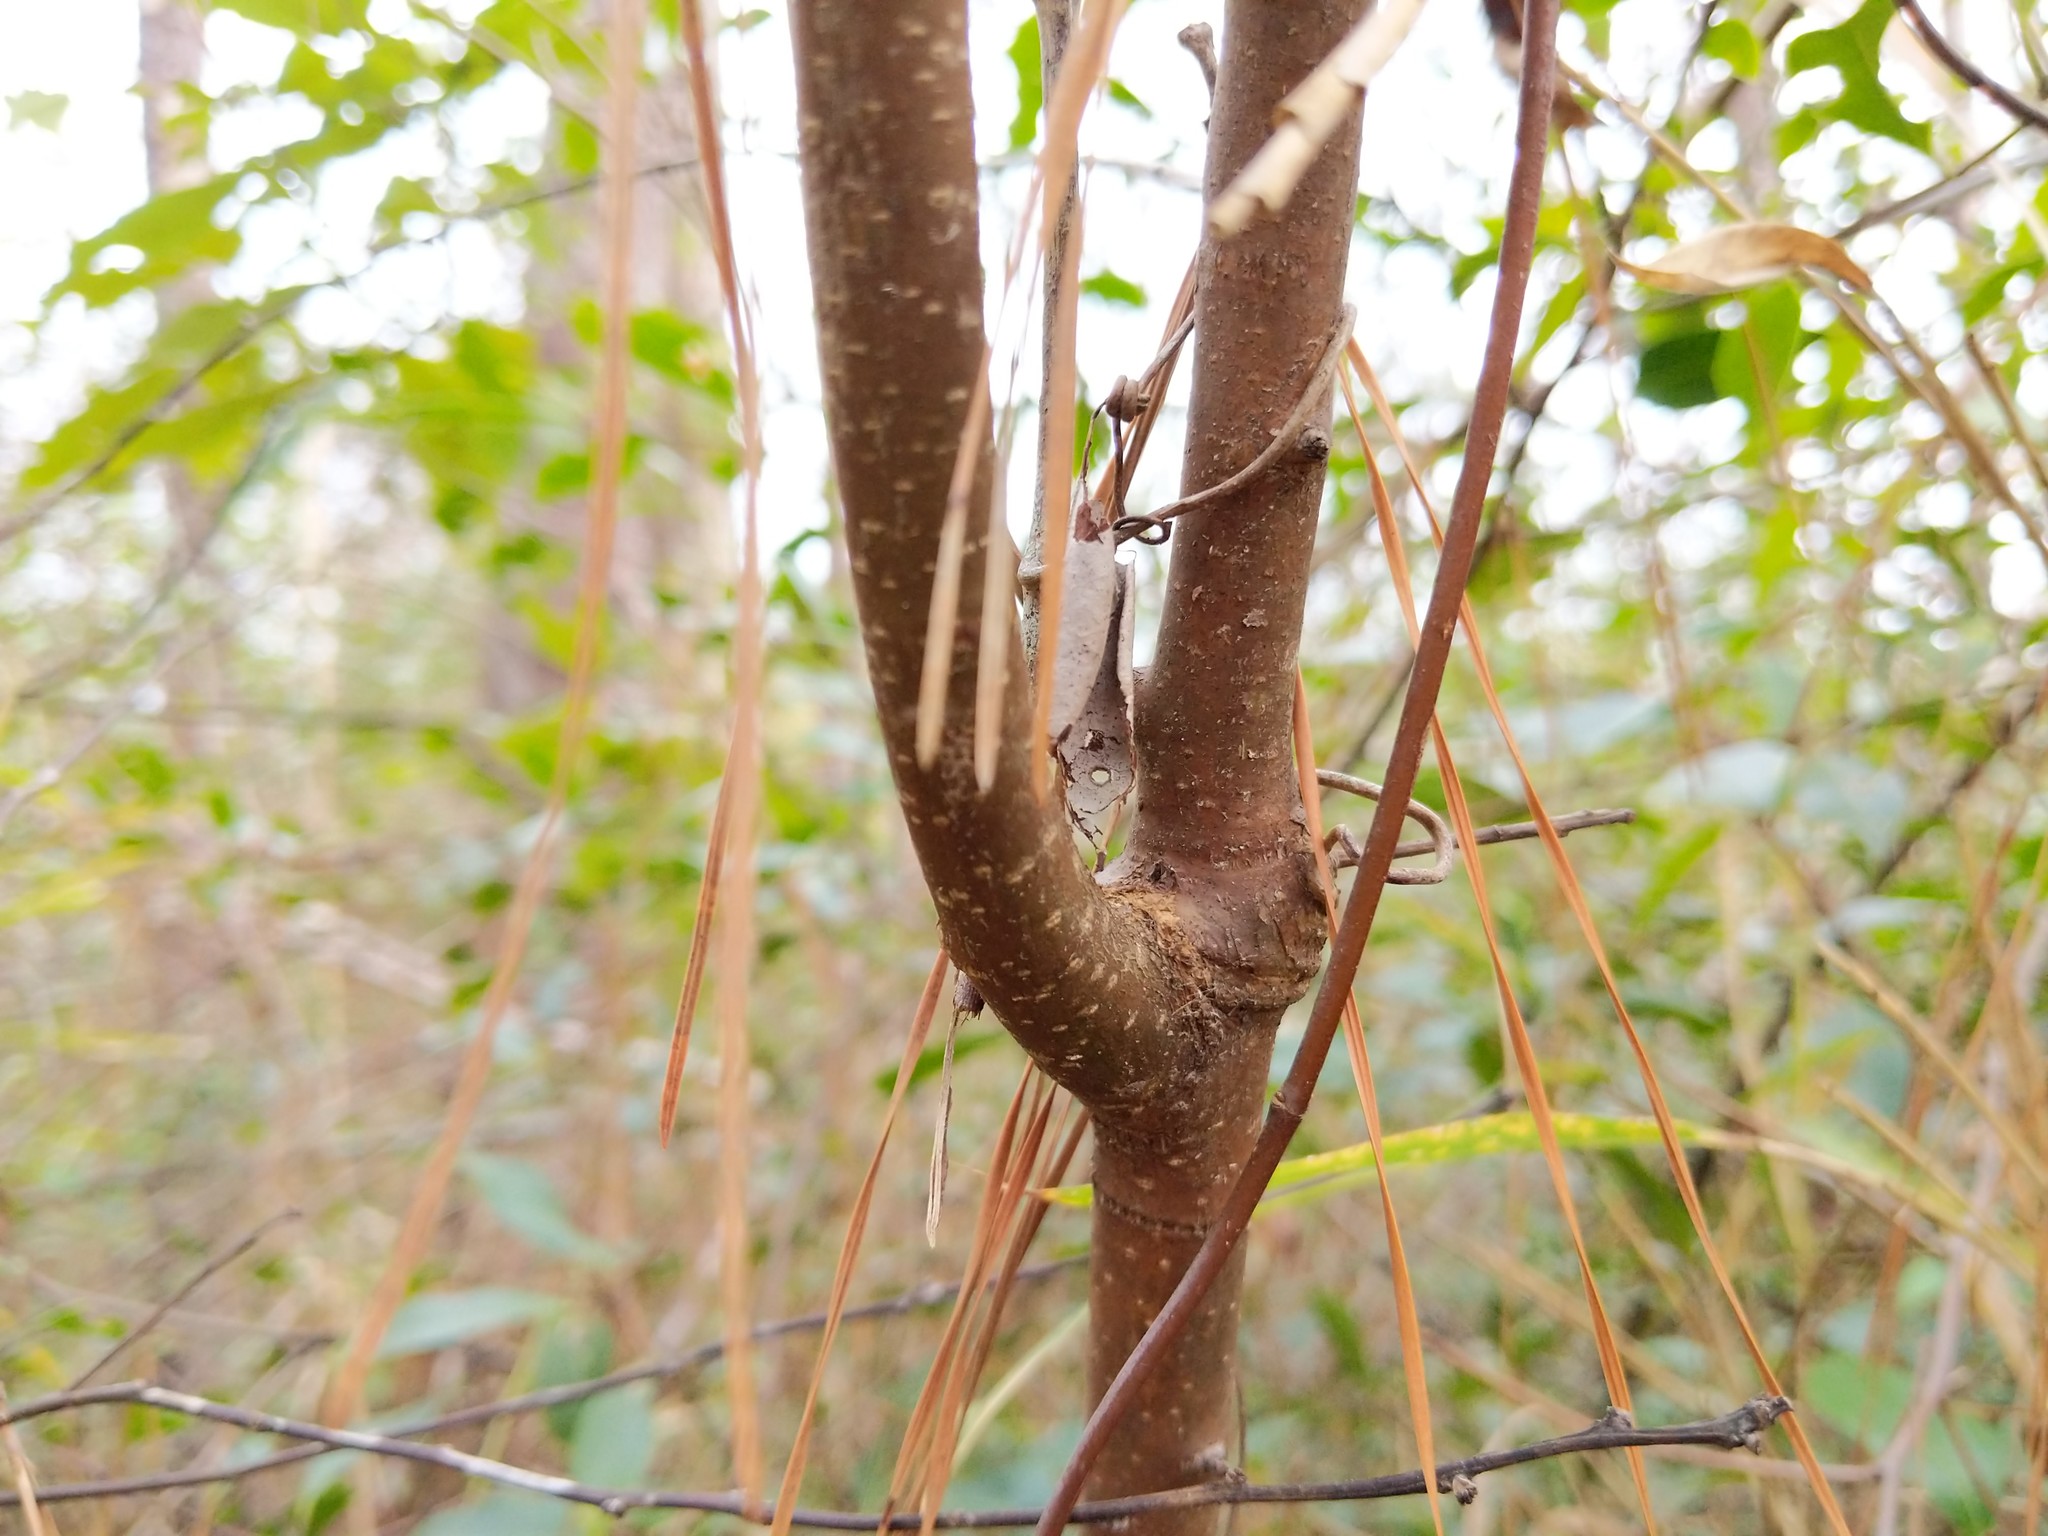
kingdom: Plantae
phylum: Tracheophyta
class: Magnoliopsida
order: Aquifoliales
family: Aquifoliaceae
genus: Ilex
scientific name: Ilex coriacea
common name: Sweet gallberry
